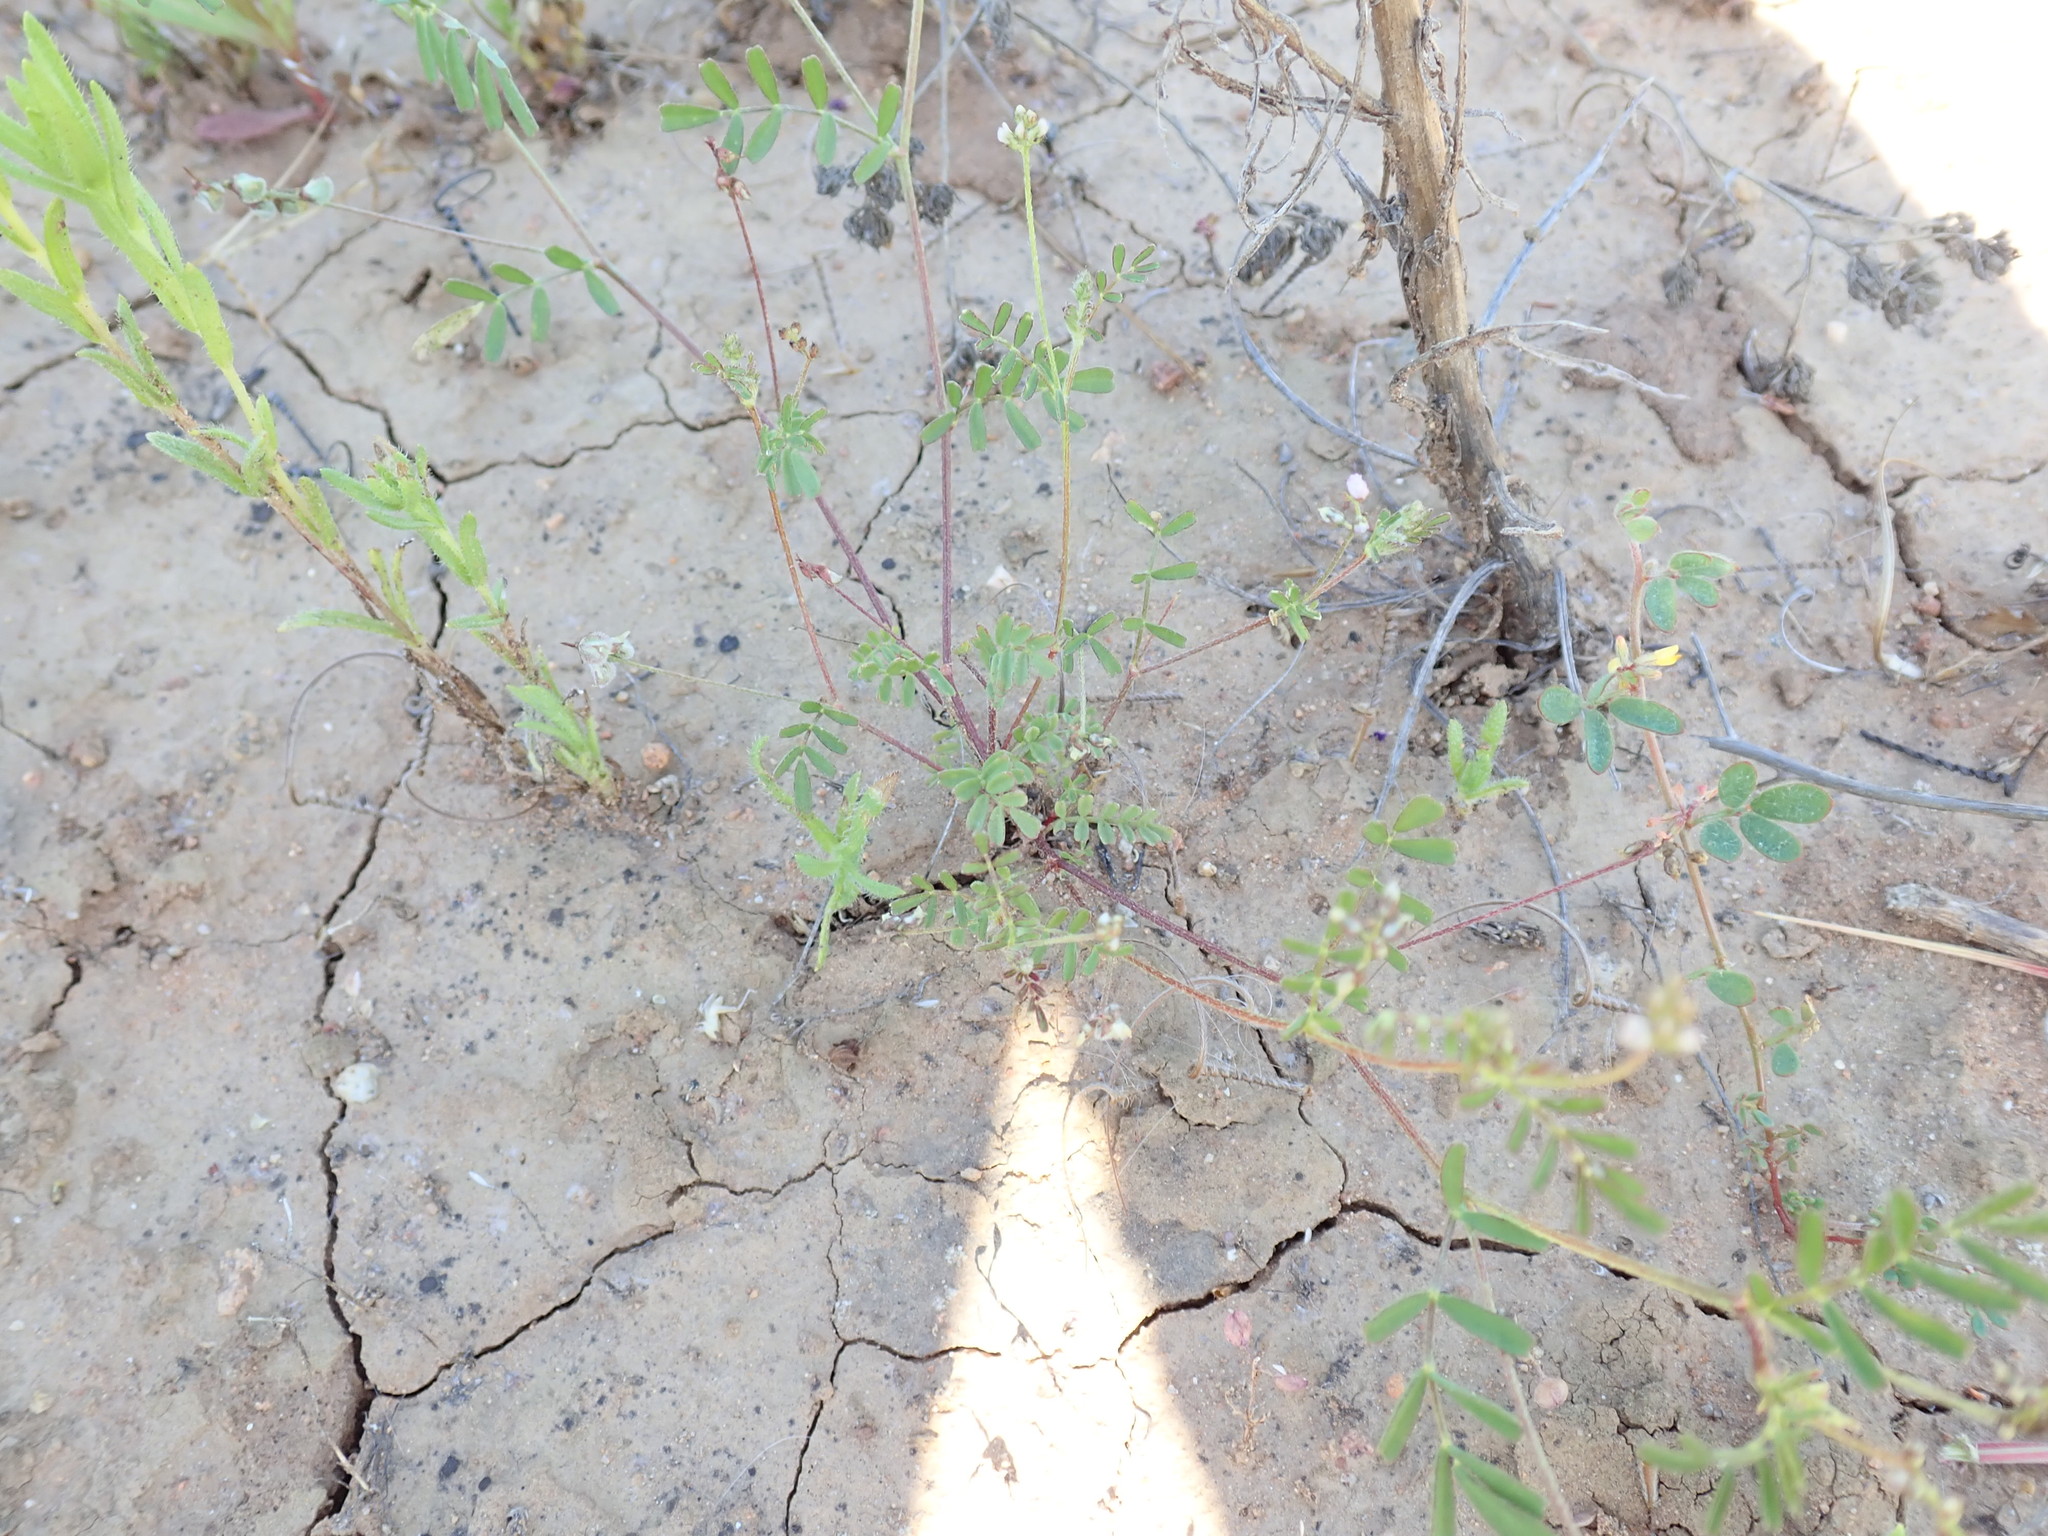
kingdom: Plantae
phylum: Tracheophyta
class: Magnoliopsida
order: Fabales
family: Fabaceae
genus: Astragalus
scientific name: Astragalus gambelianus
